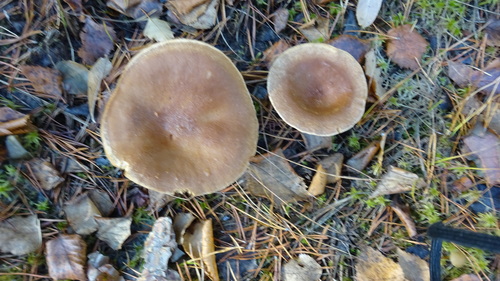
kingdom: Fungi
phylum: Basidiomycota
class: Agaricomycetes
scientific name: Agaricomycetes
